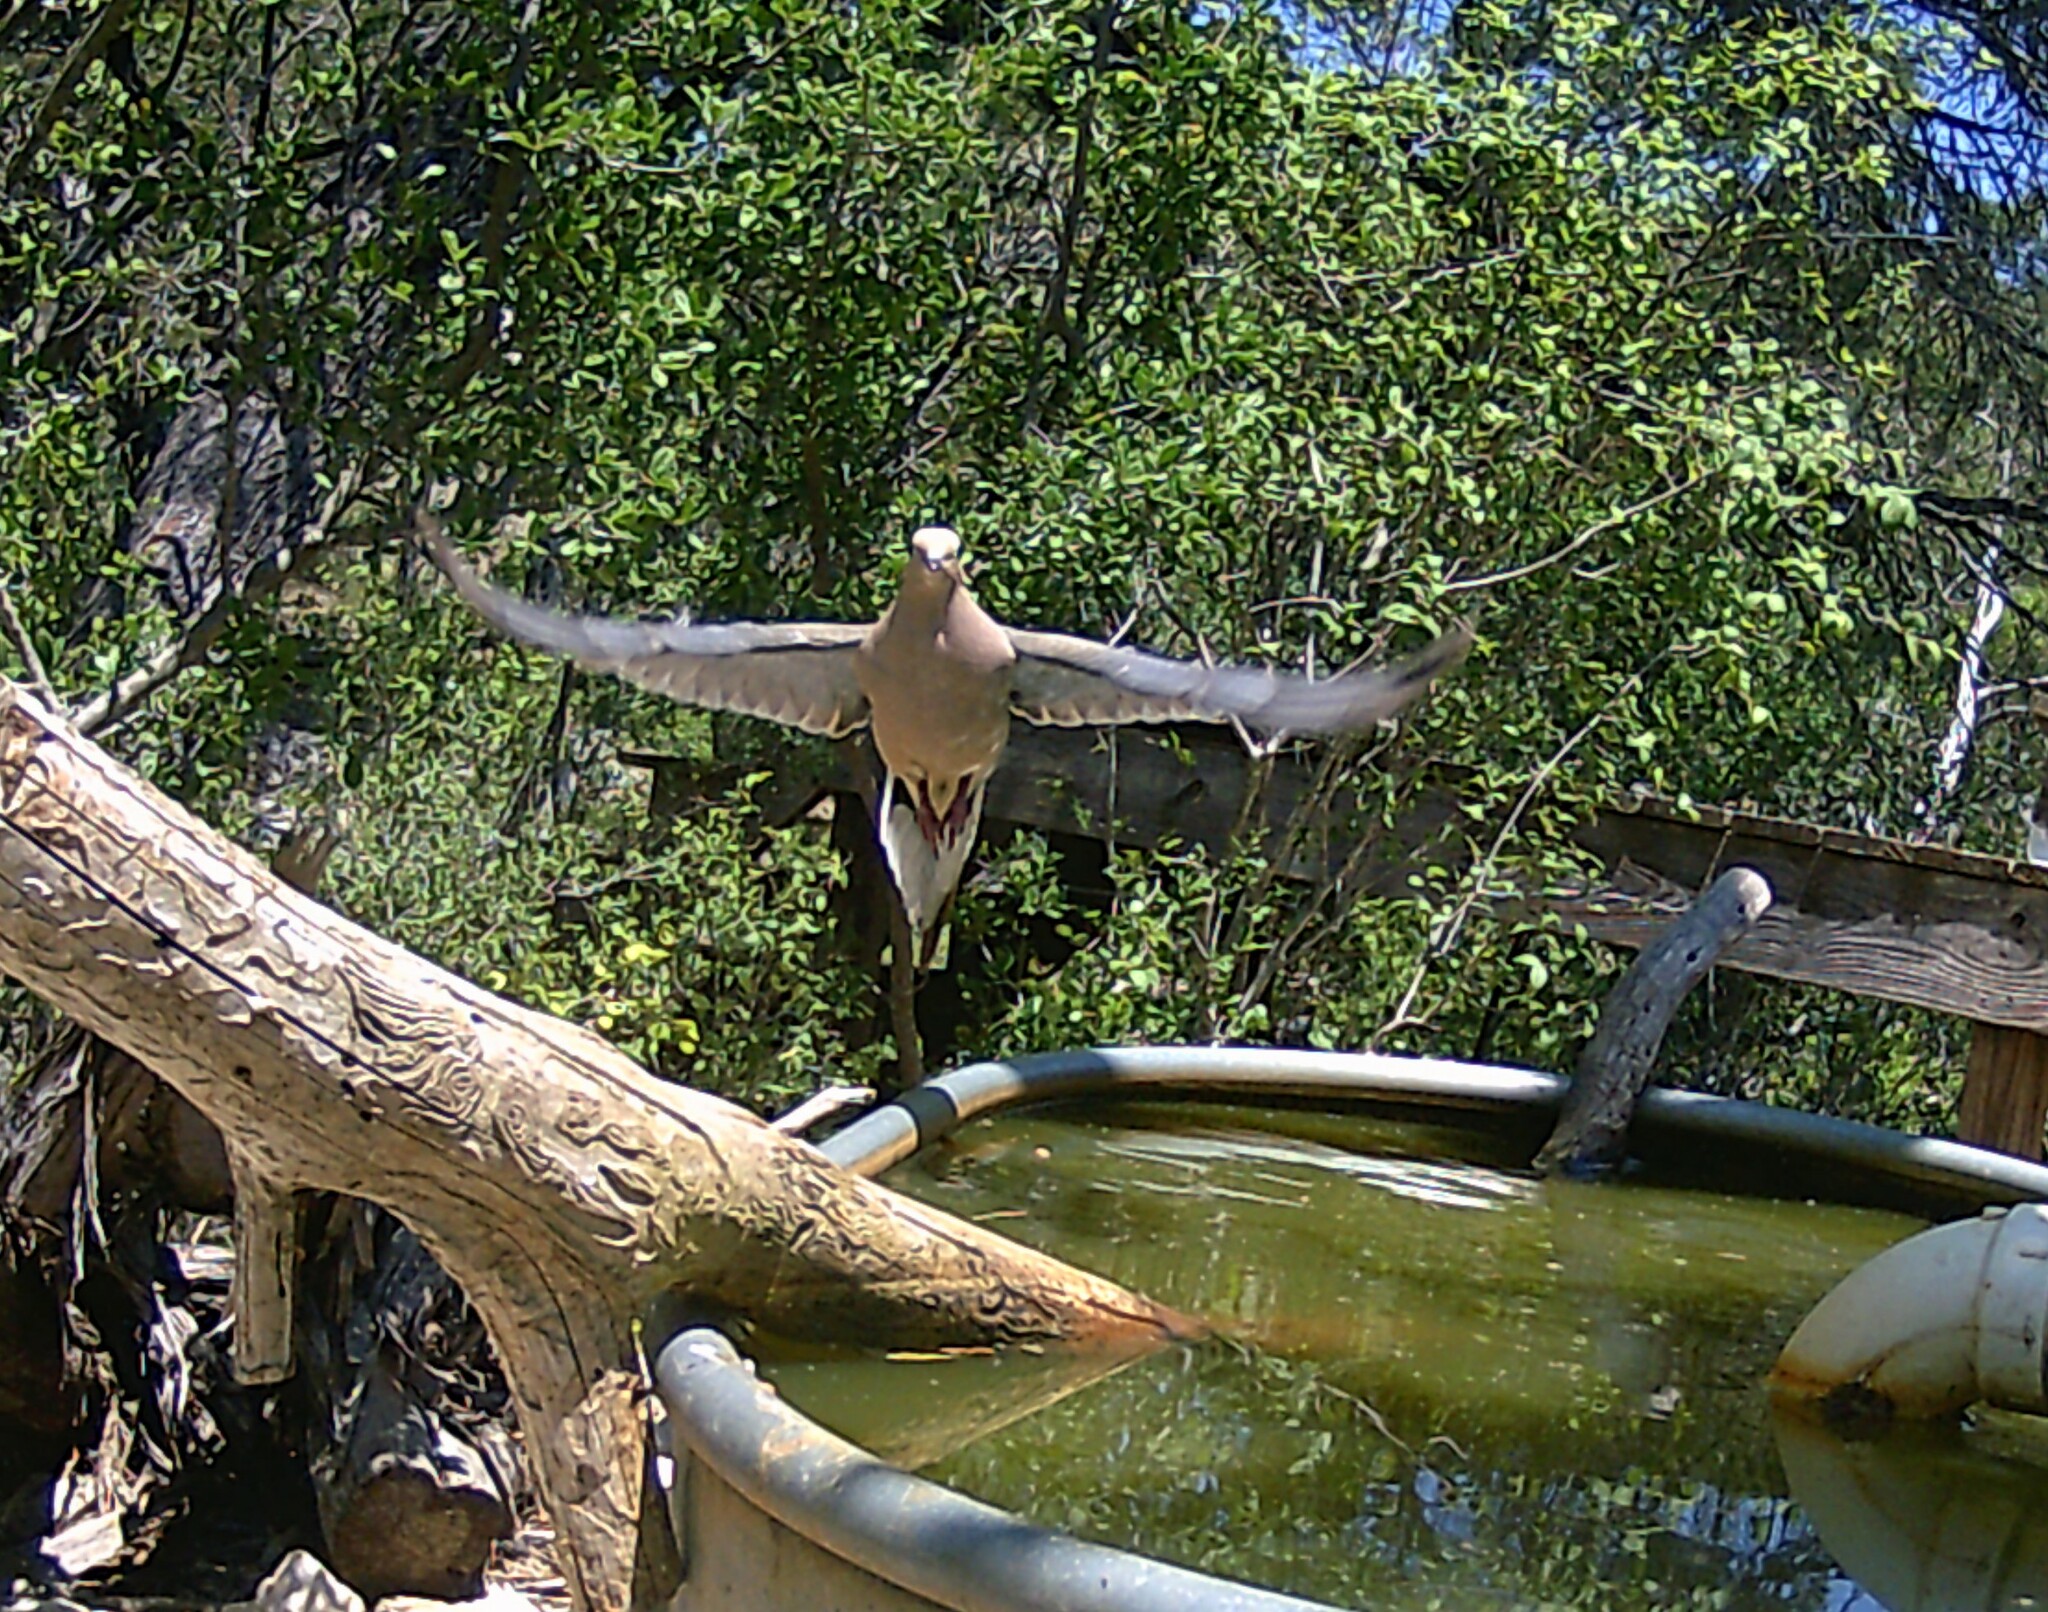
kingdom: Animalia
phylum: Chordata
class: Aves
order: Columbiformes
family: Columbidae
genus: Zenaida
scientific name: Zenaida macroura
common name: Mourning dove
